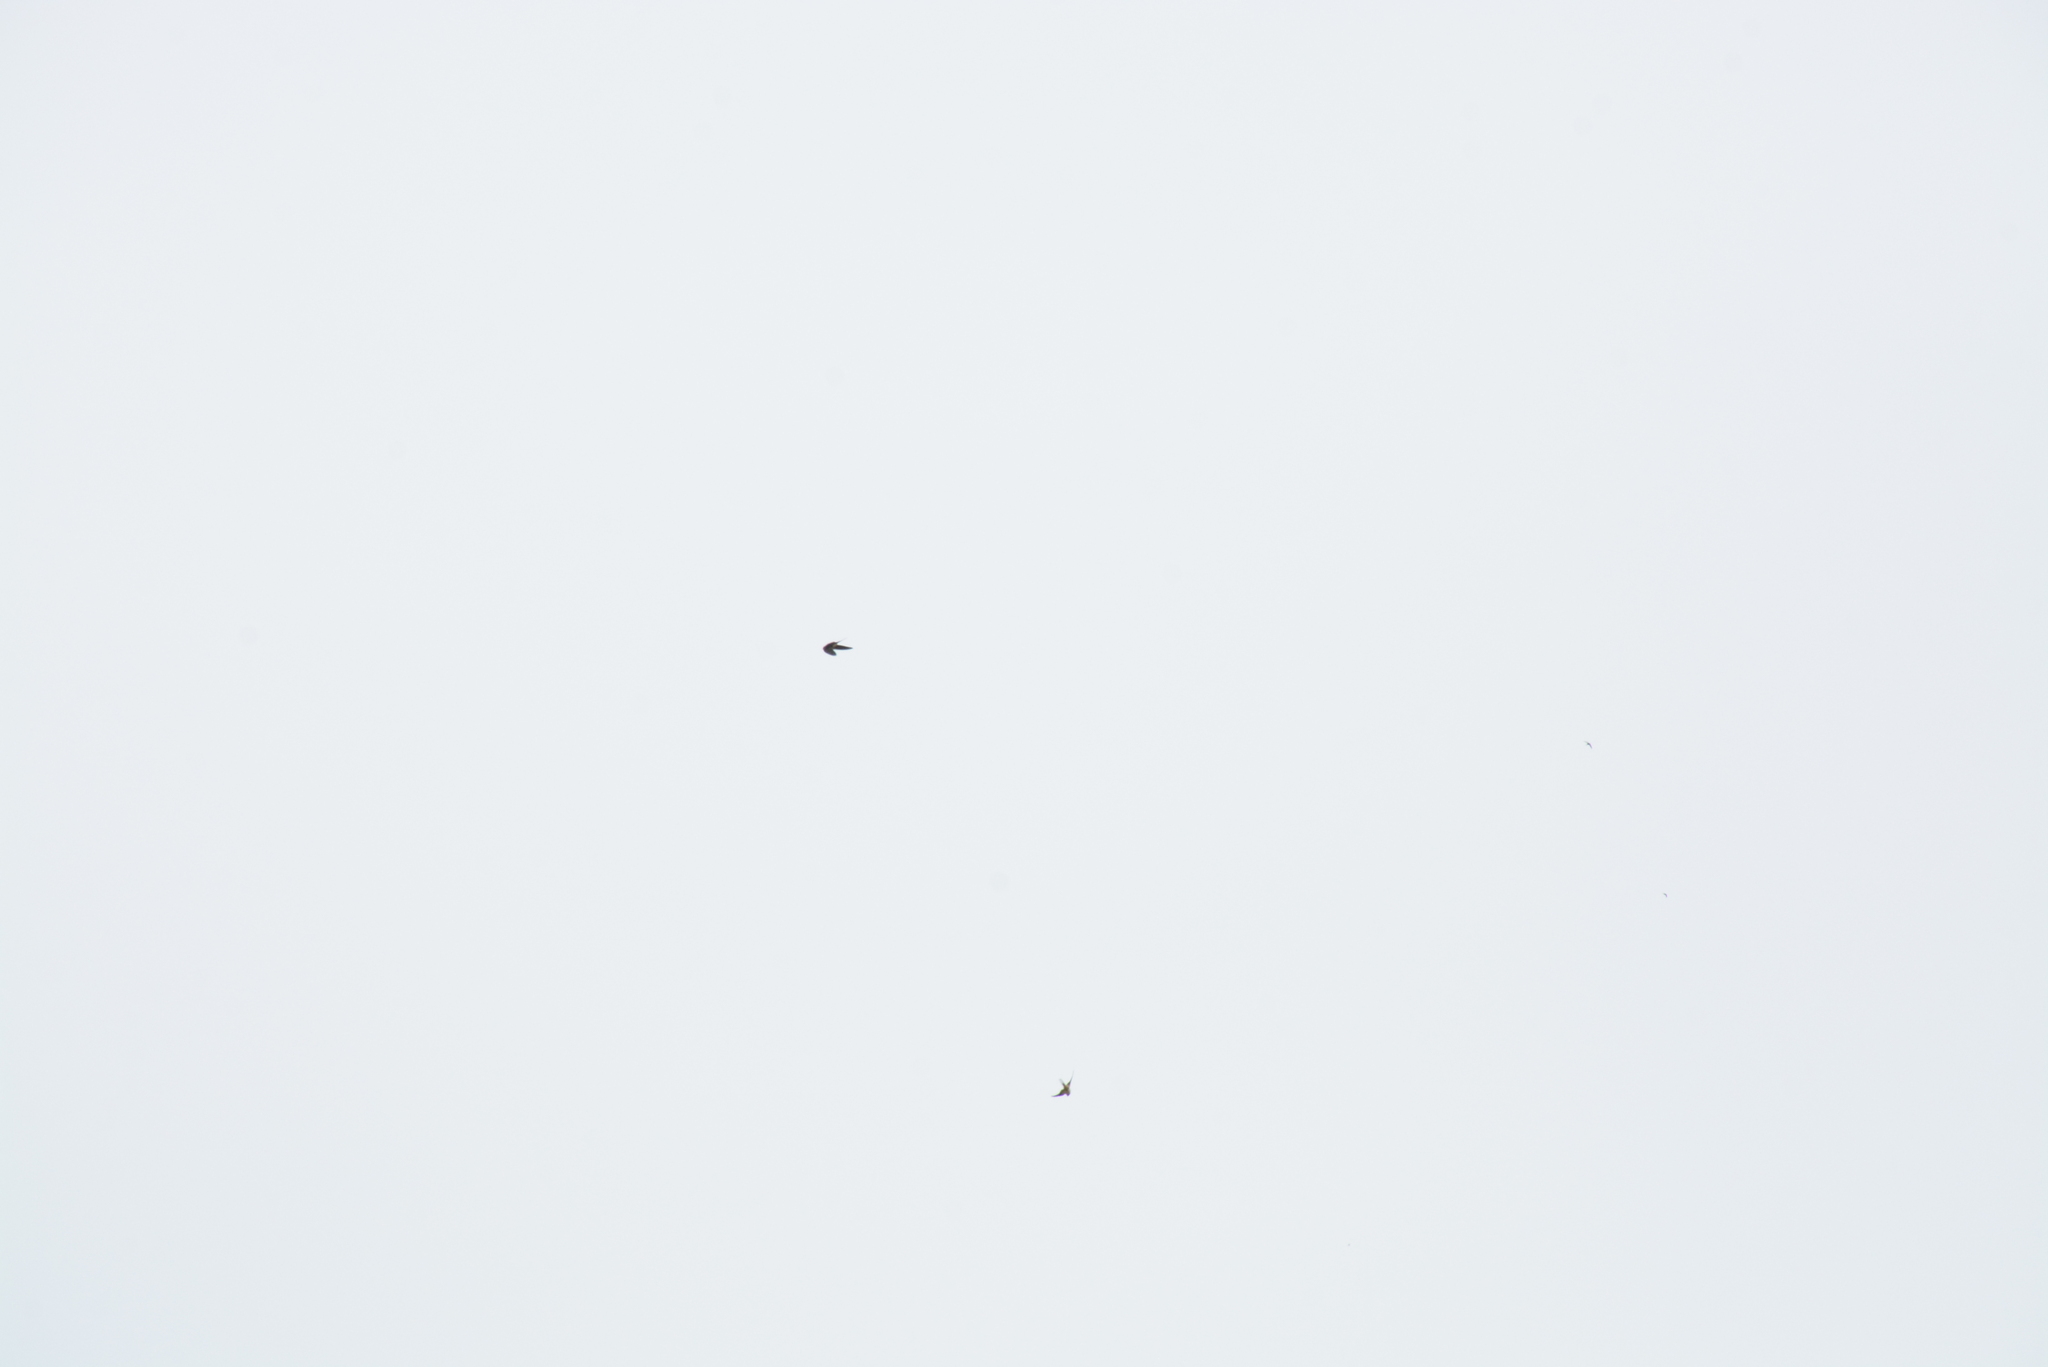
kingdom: Animalia
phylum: Chordata
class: Aves
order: Passeriformes
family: Hirundinidae
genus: Hirundo
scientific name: Hirundo rustica
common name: Barn swallow
